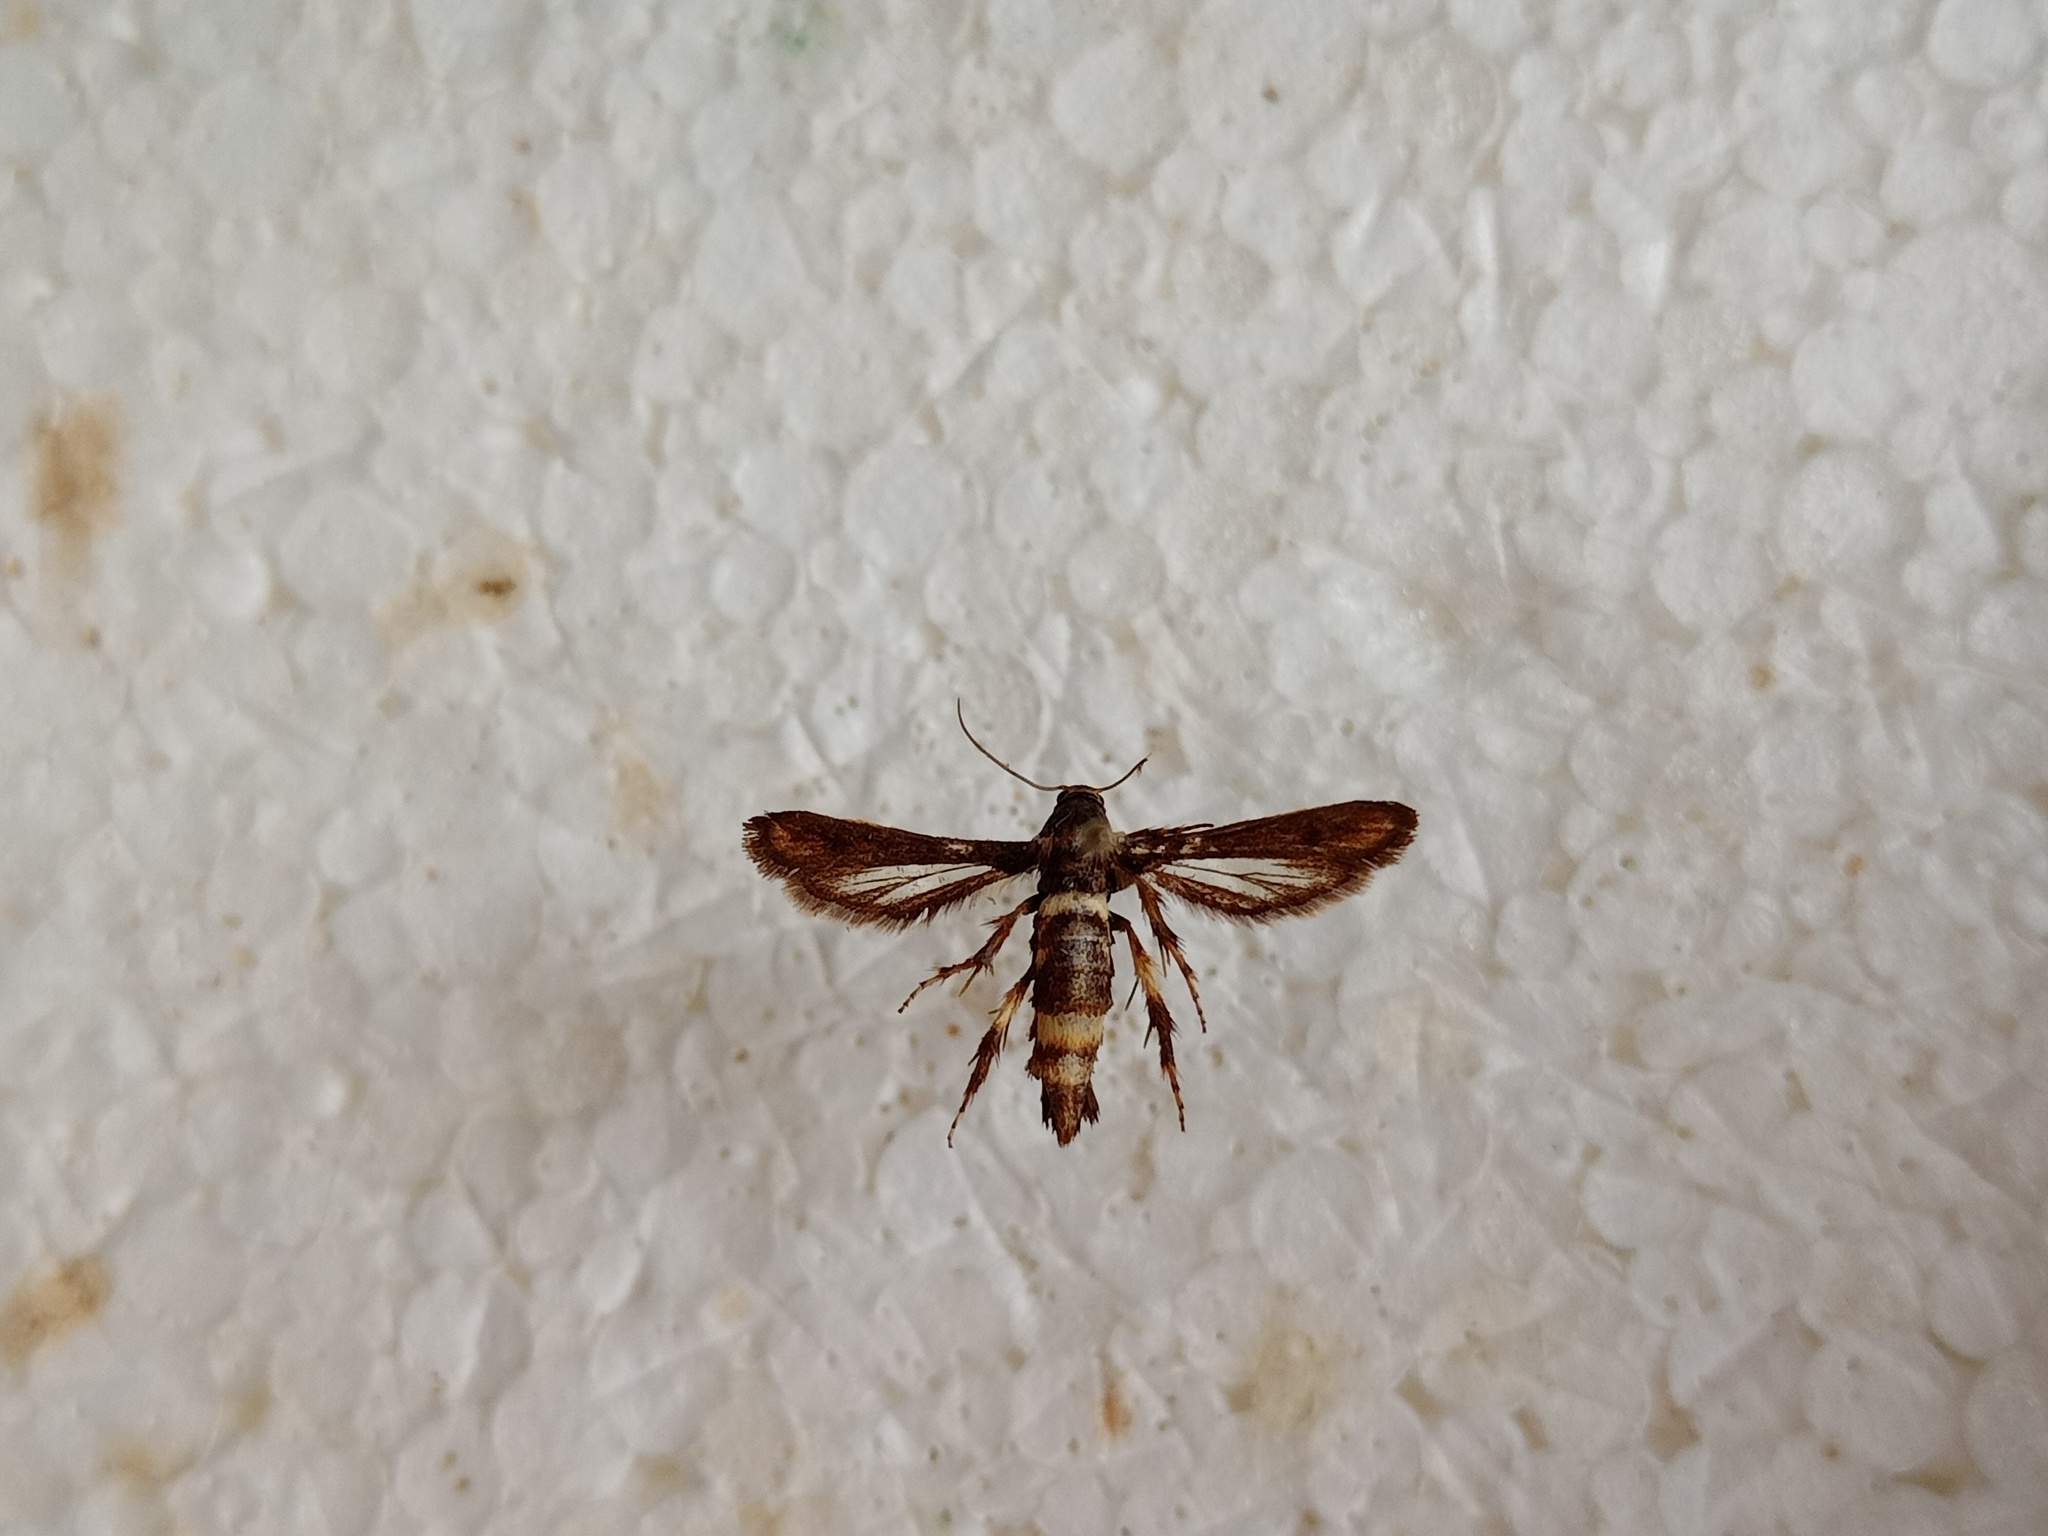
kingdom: Animalia
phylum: Arthropoda
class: Insecta
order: Lepidoptera
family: Sesiidae
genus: Microsphecia
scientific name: Microsphecia brosiformis
